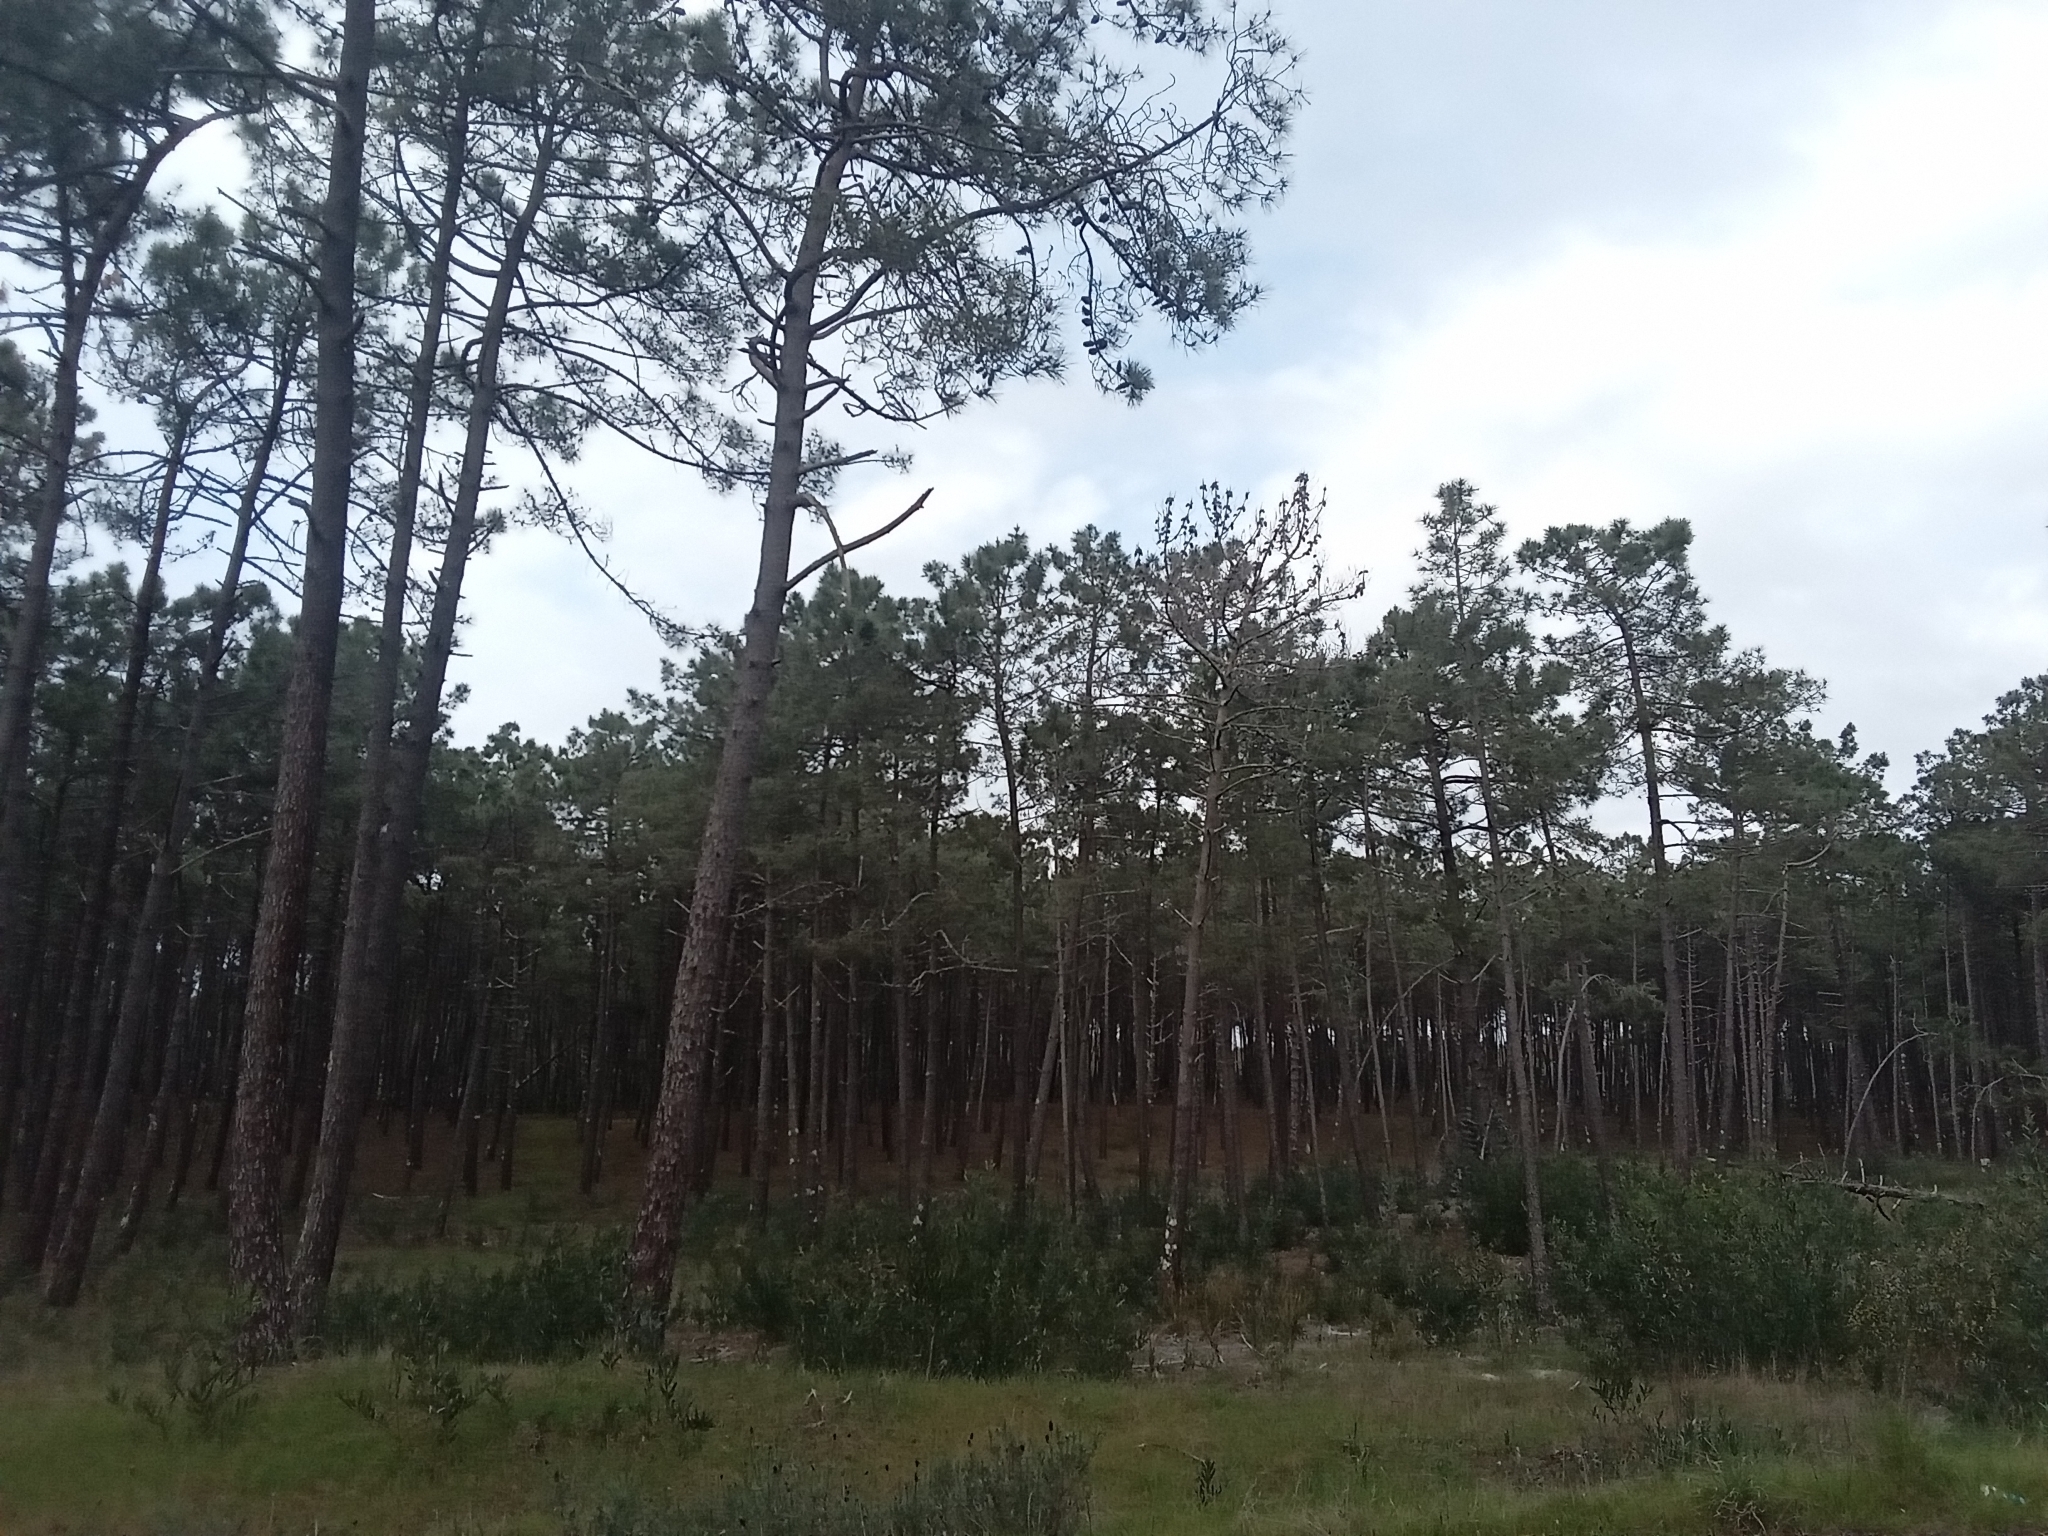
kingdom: Plantae
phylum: Tracheophyta
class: Pinopsida
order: Pinales
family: Pinaceae
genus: Pinus
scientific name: Pinus pinaster
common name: Maritime pine
